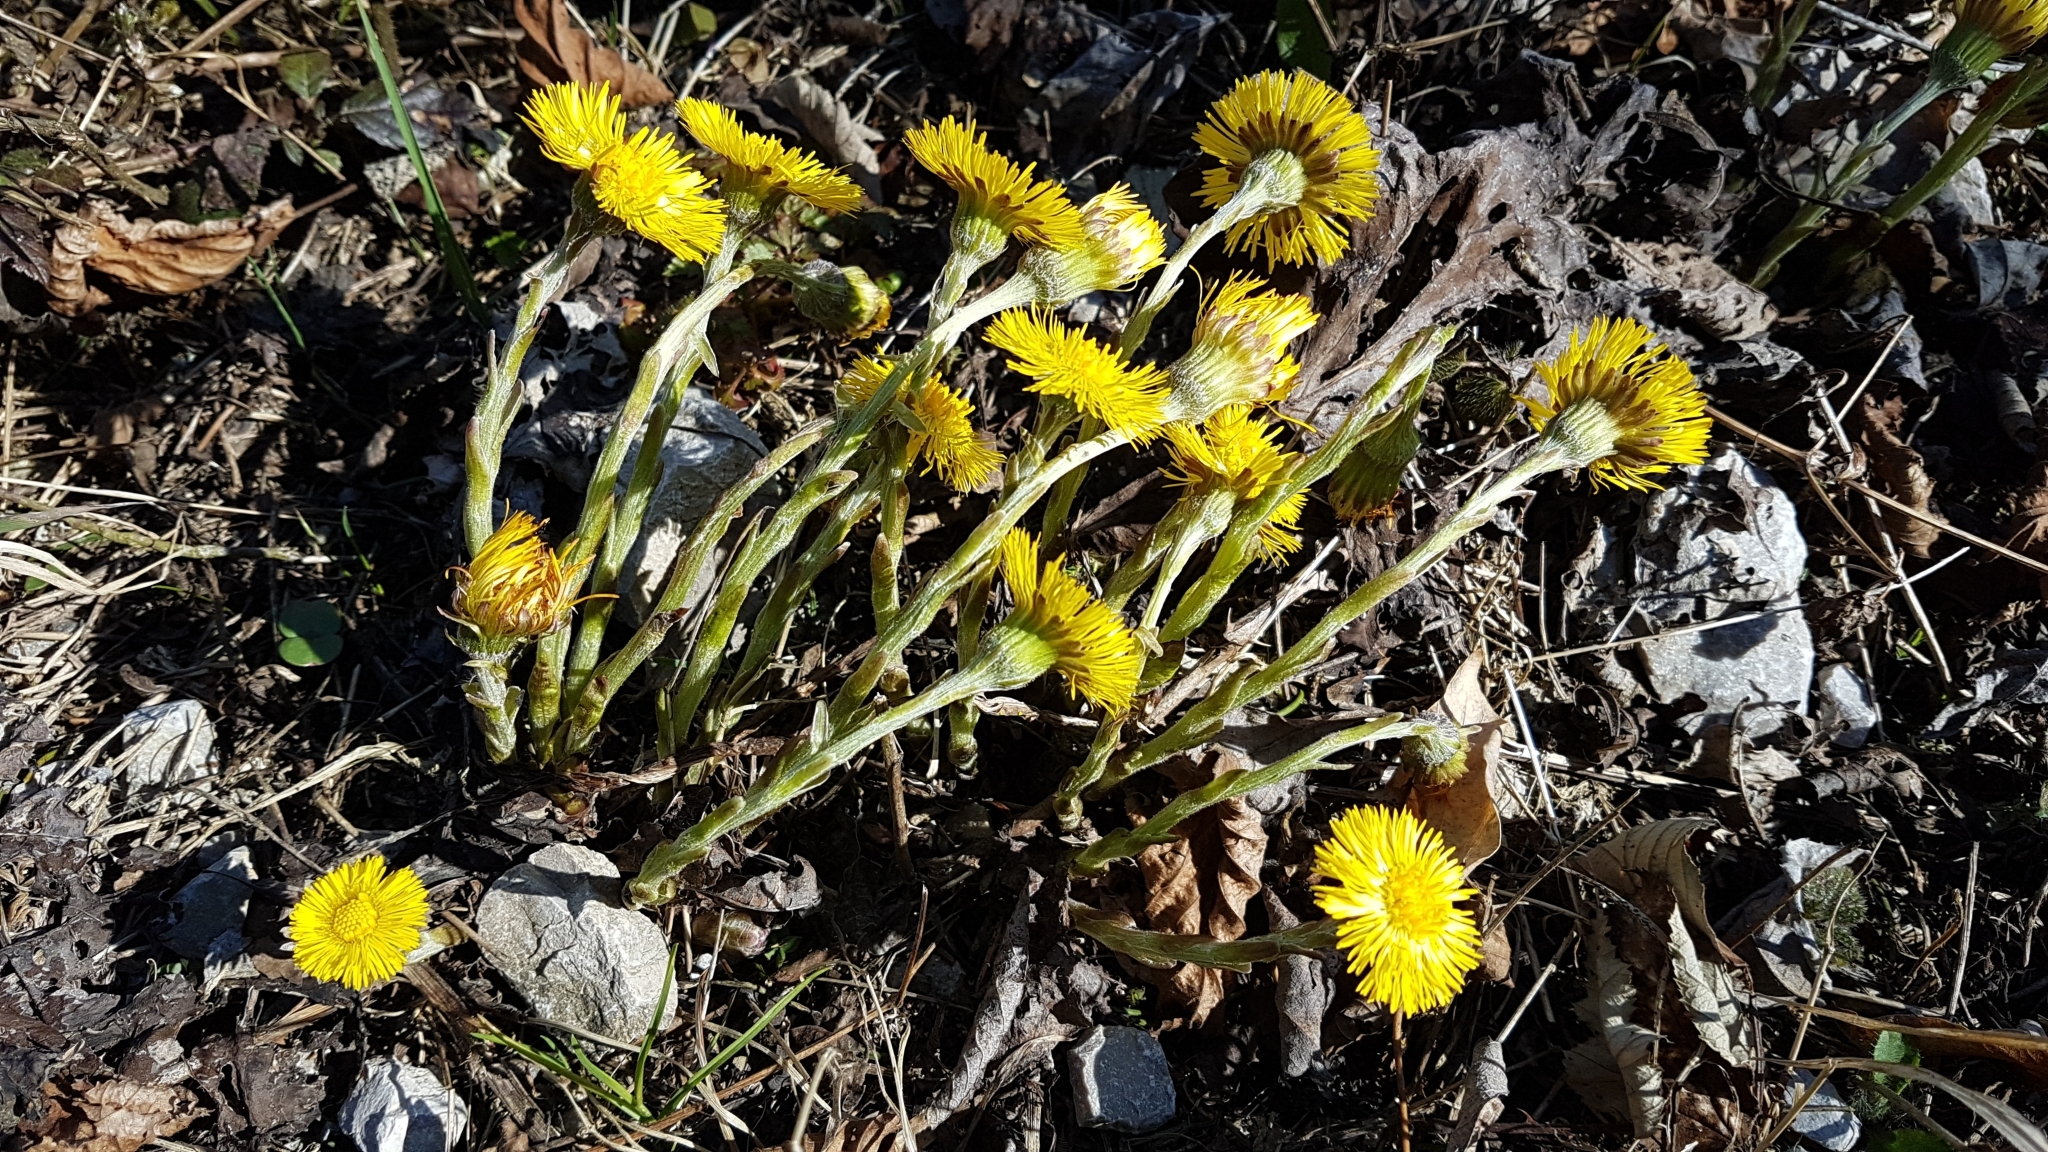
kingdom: Plantae
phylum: Tracheophyta
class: Magnoliopsida
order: Asterales
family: Asteraceae
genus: Tussilago
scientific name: Tussilago farfara
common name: Coltsfoot
